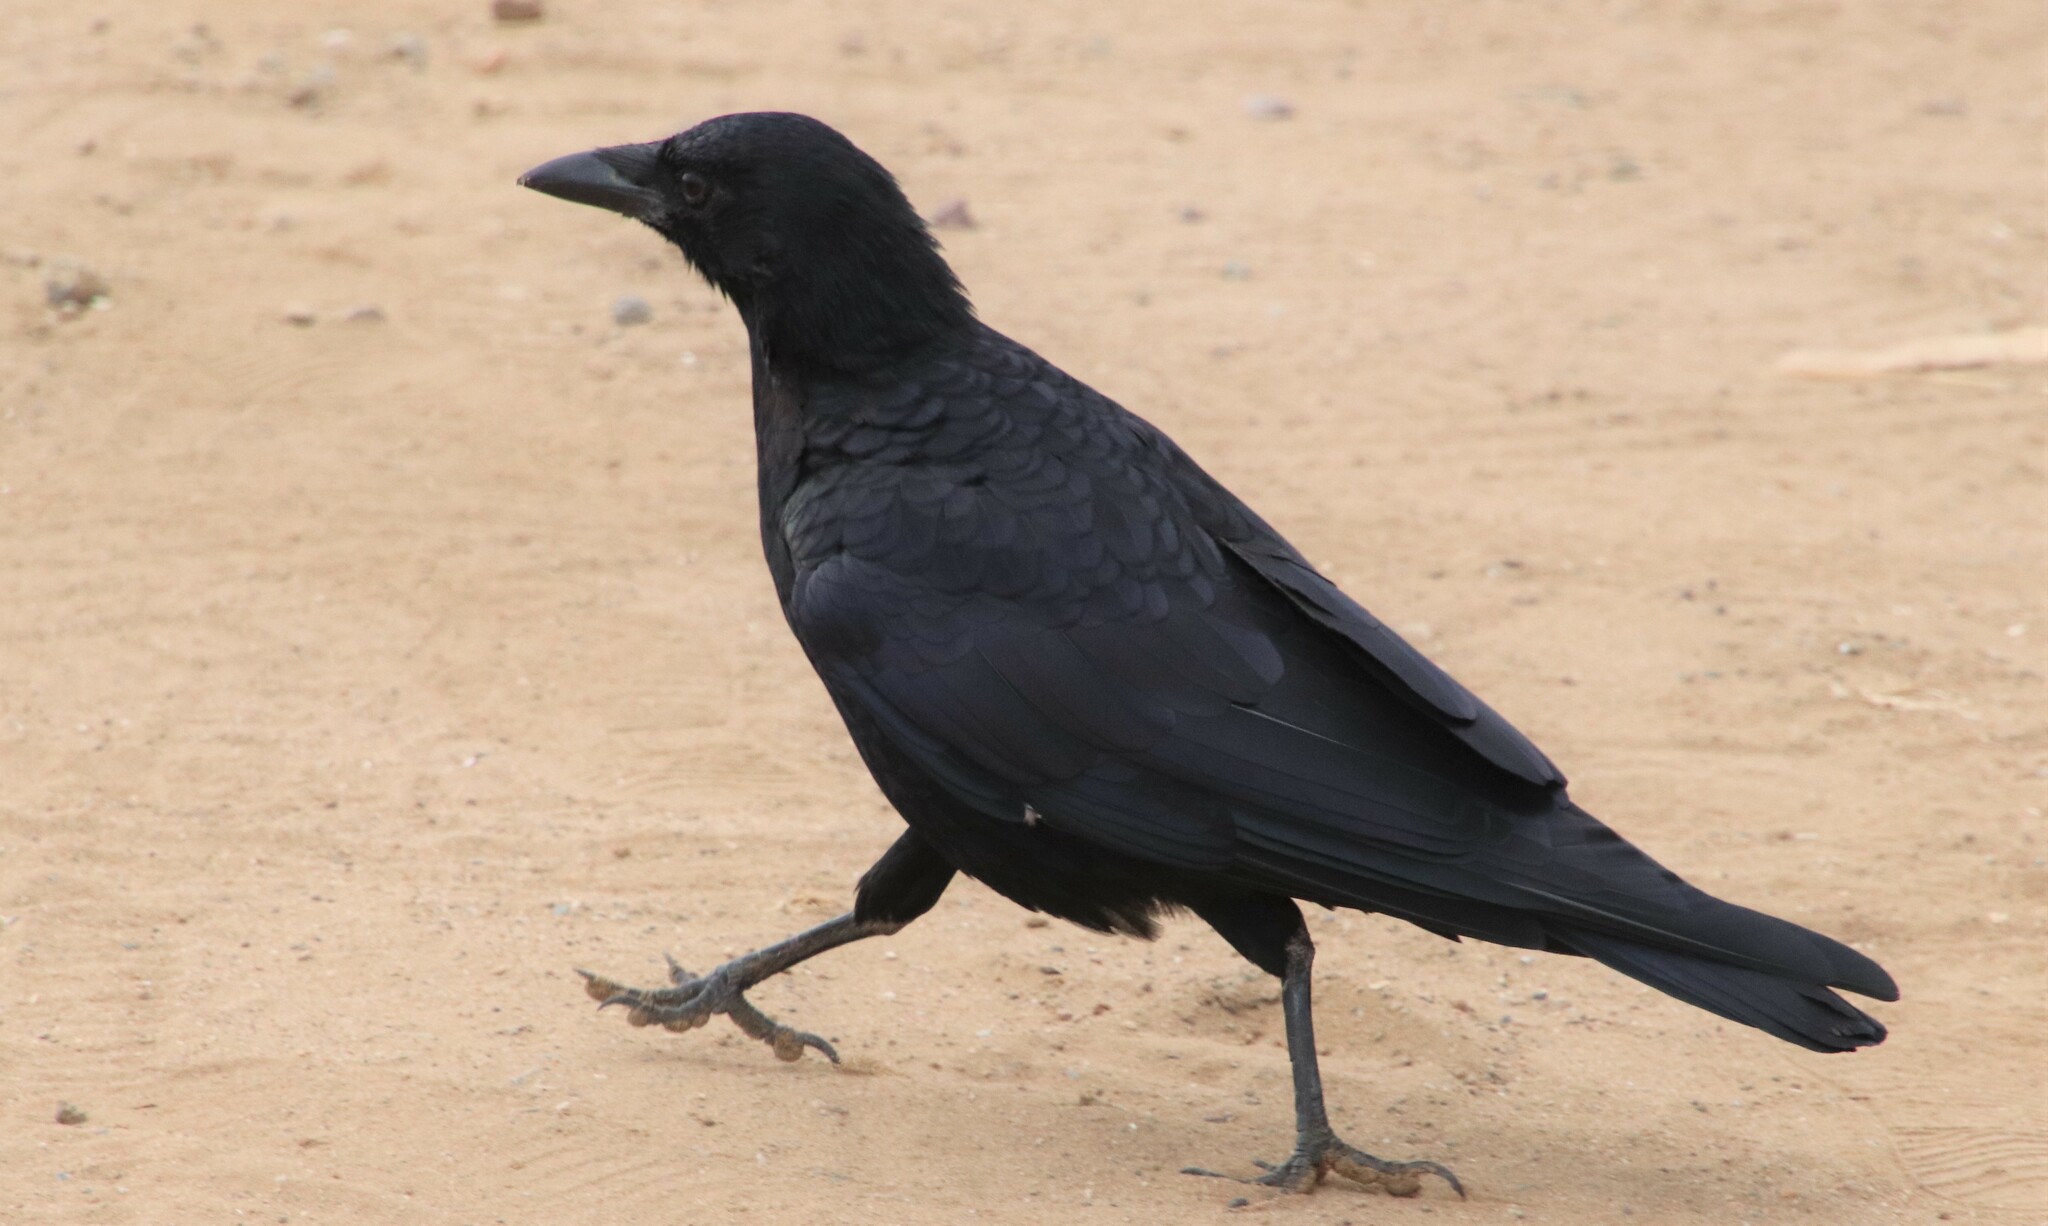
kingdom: Animalia
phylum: Chordata
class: Aves
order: Passeriformes
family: Corvidae
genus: Corvus
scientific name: Corvus brachyrhynchos
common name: American crow
